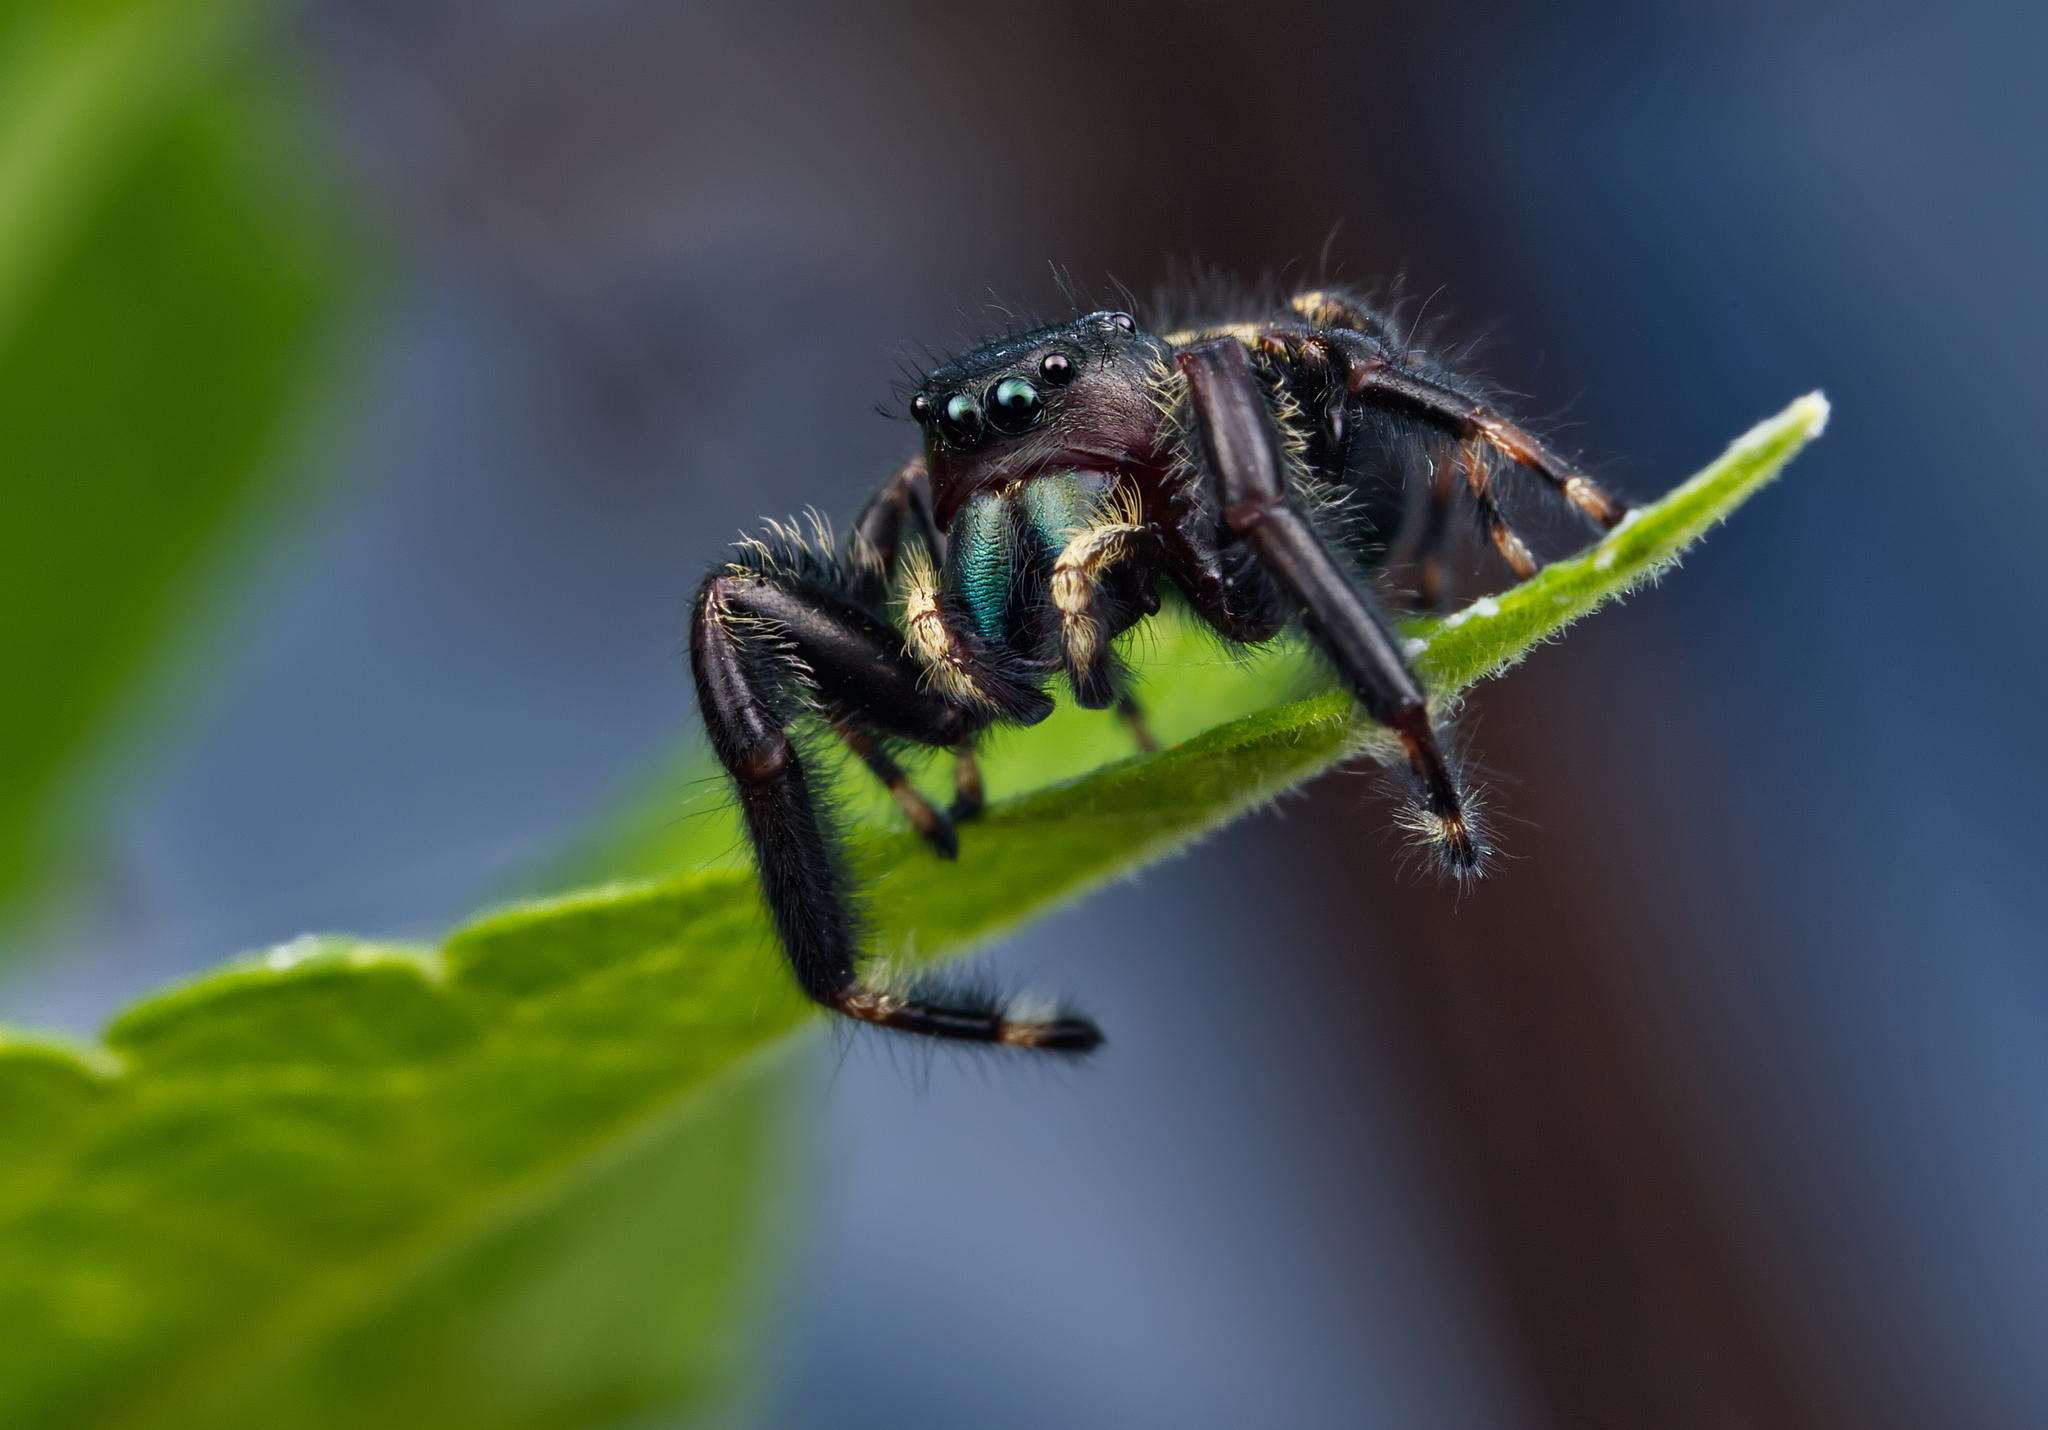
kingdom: Animalia
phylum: Arthropoda
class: Arachnida
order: Araneae
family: Salticidae
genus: Phidippus
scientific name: Phidippus clarus
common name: Brilliant jumping spider
